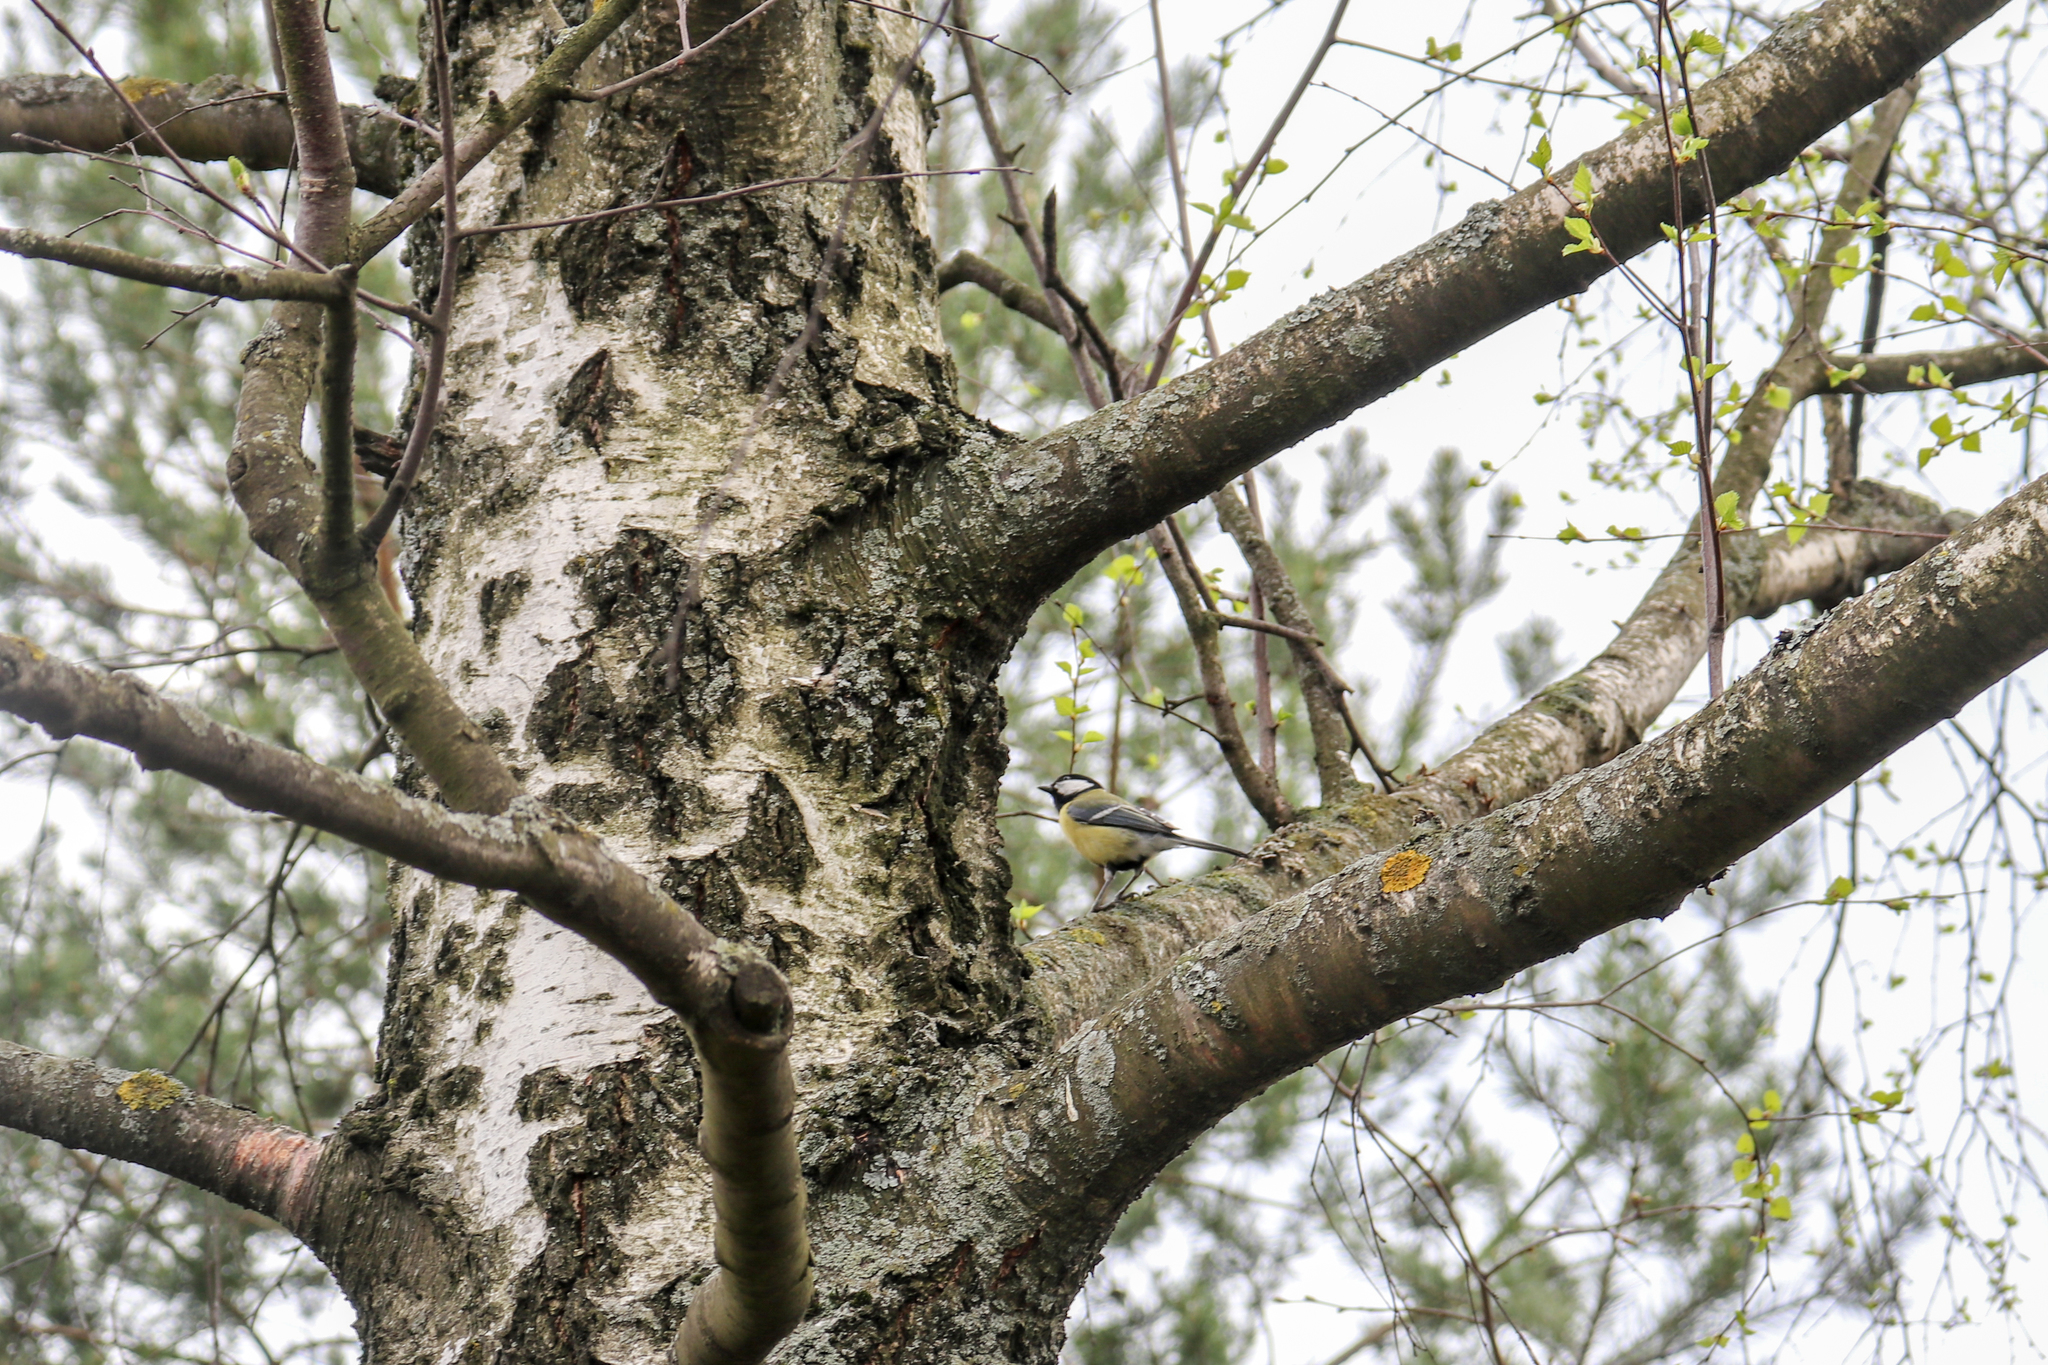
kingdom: Animalia
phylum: Chordata
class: Aves
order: Passeriformes
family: Paridae
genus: Parus
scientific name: Parus major
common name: Great tit
